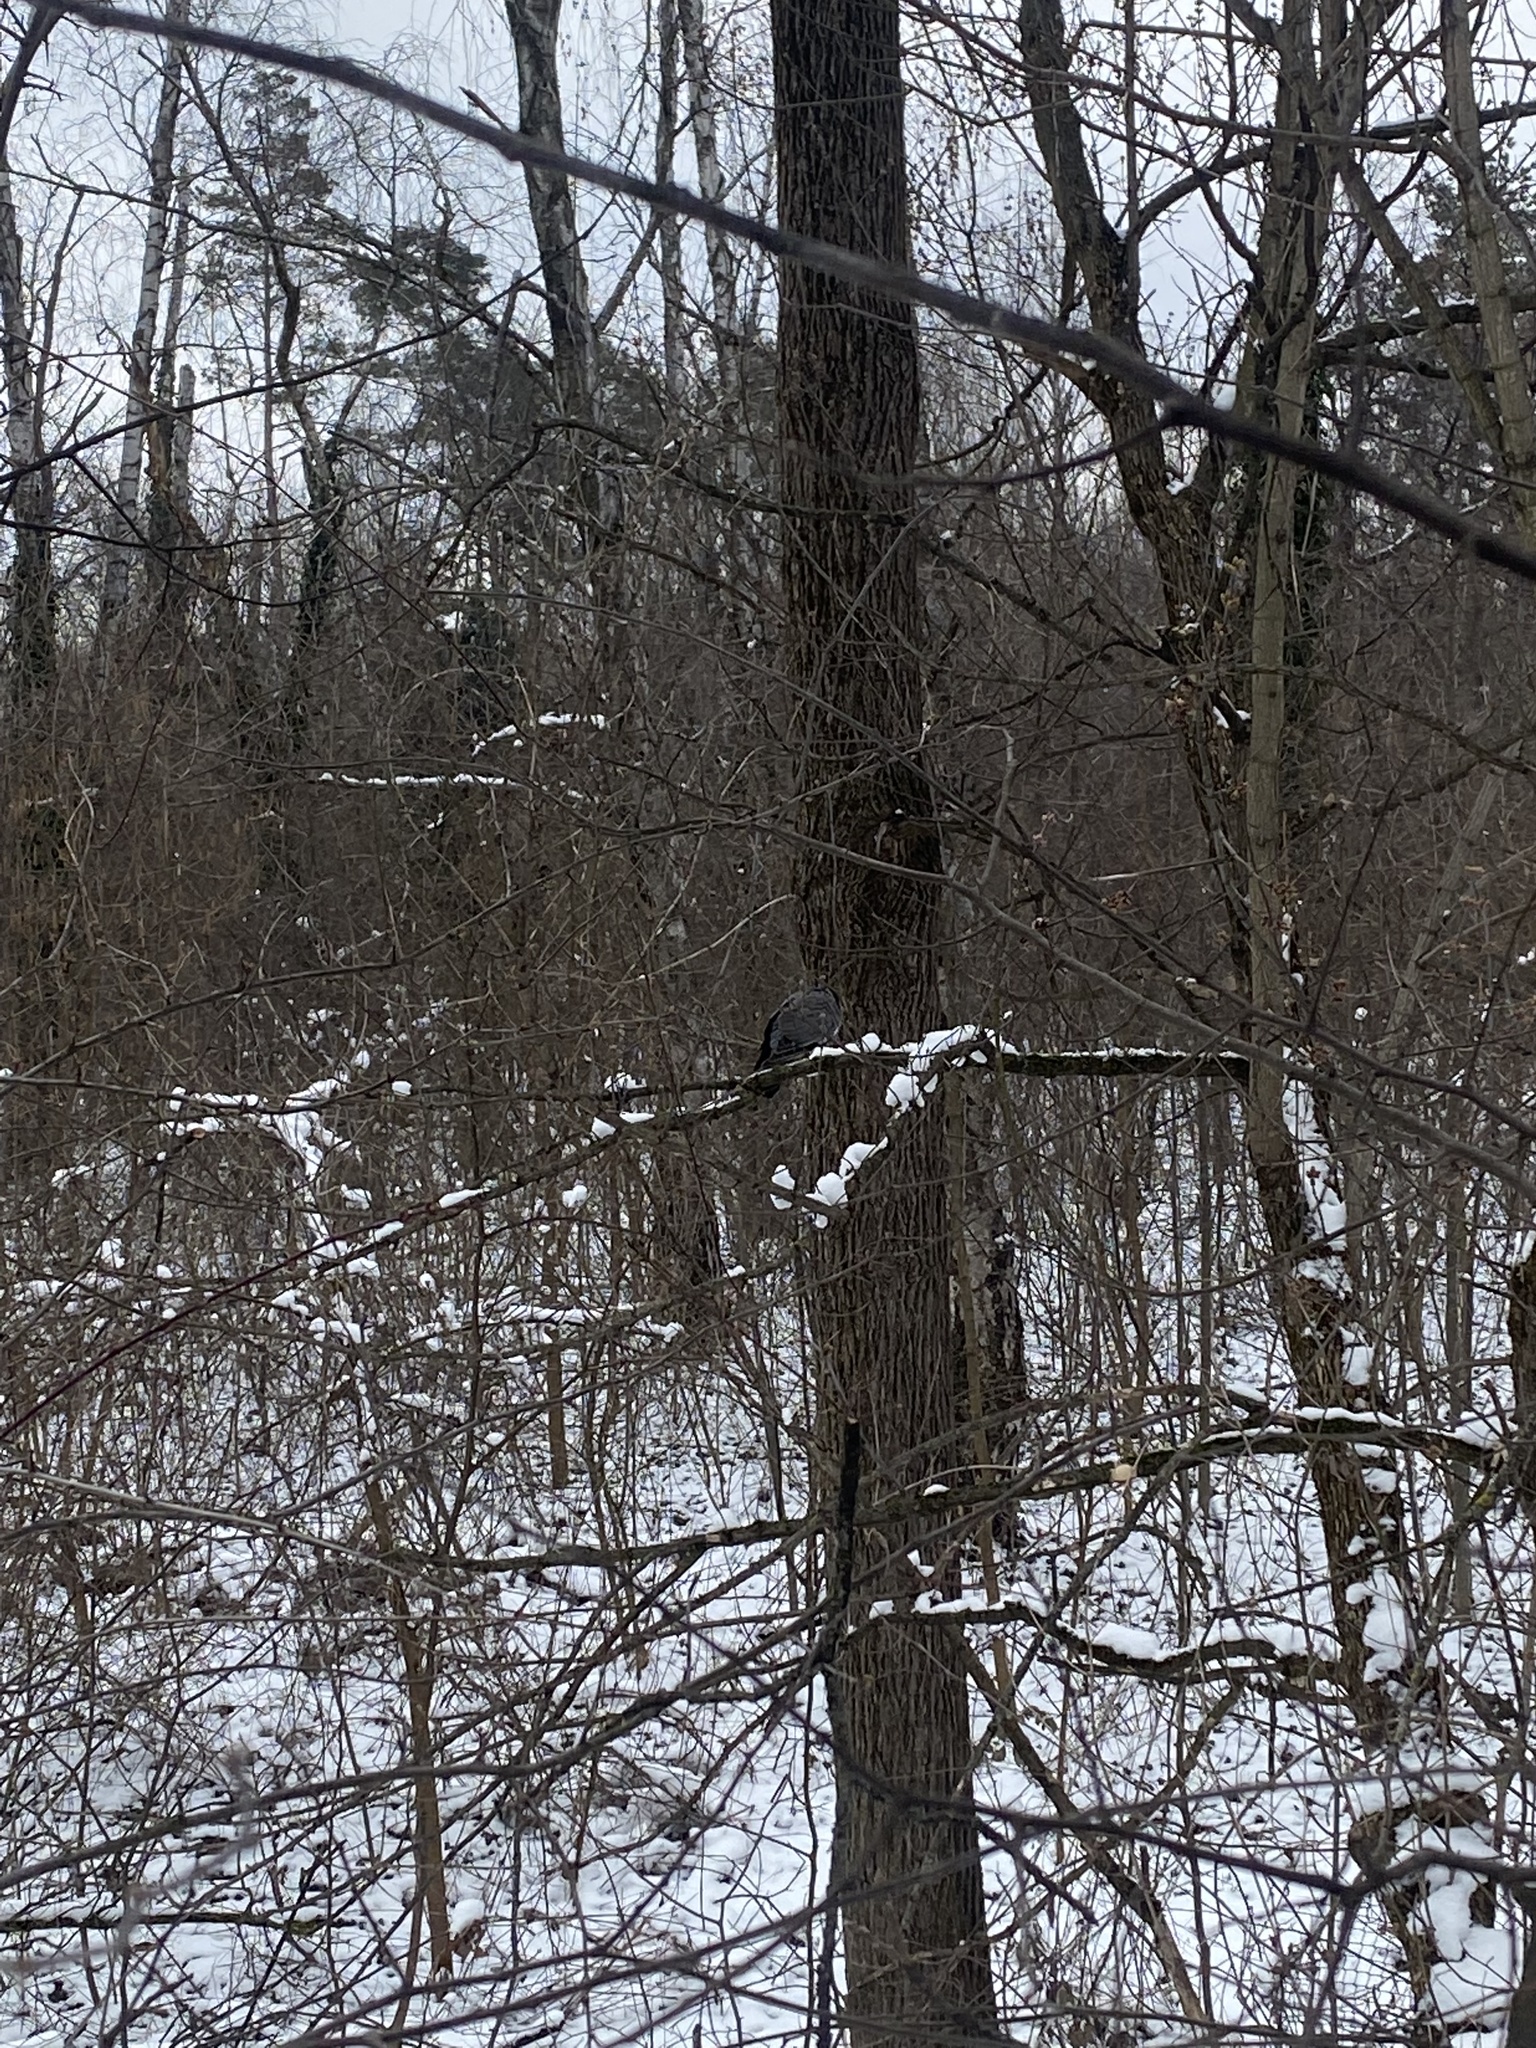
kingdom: Animalia
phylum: Chordata
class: Aves
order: Columbiformes
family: Columbidae
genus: Columba
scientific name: Columba
